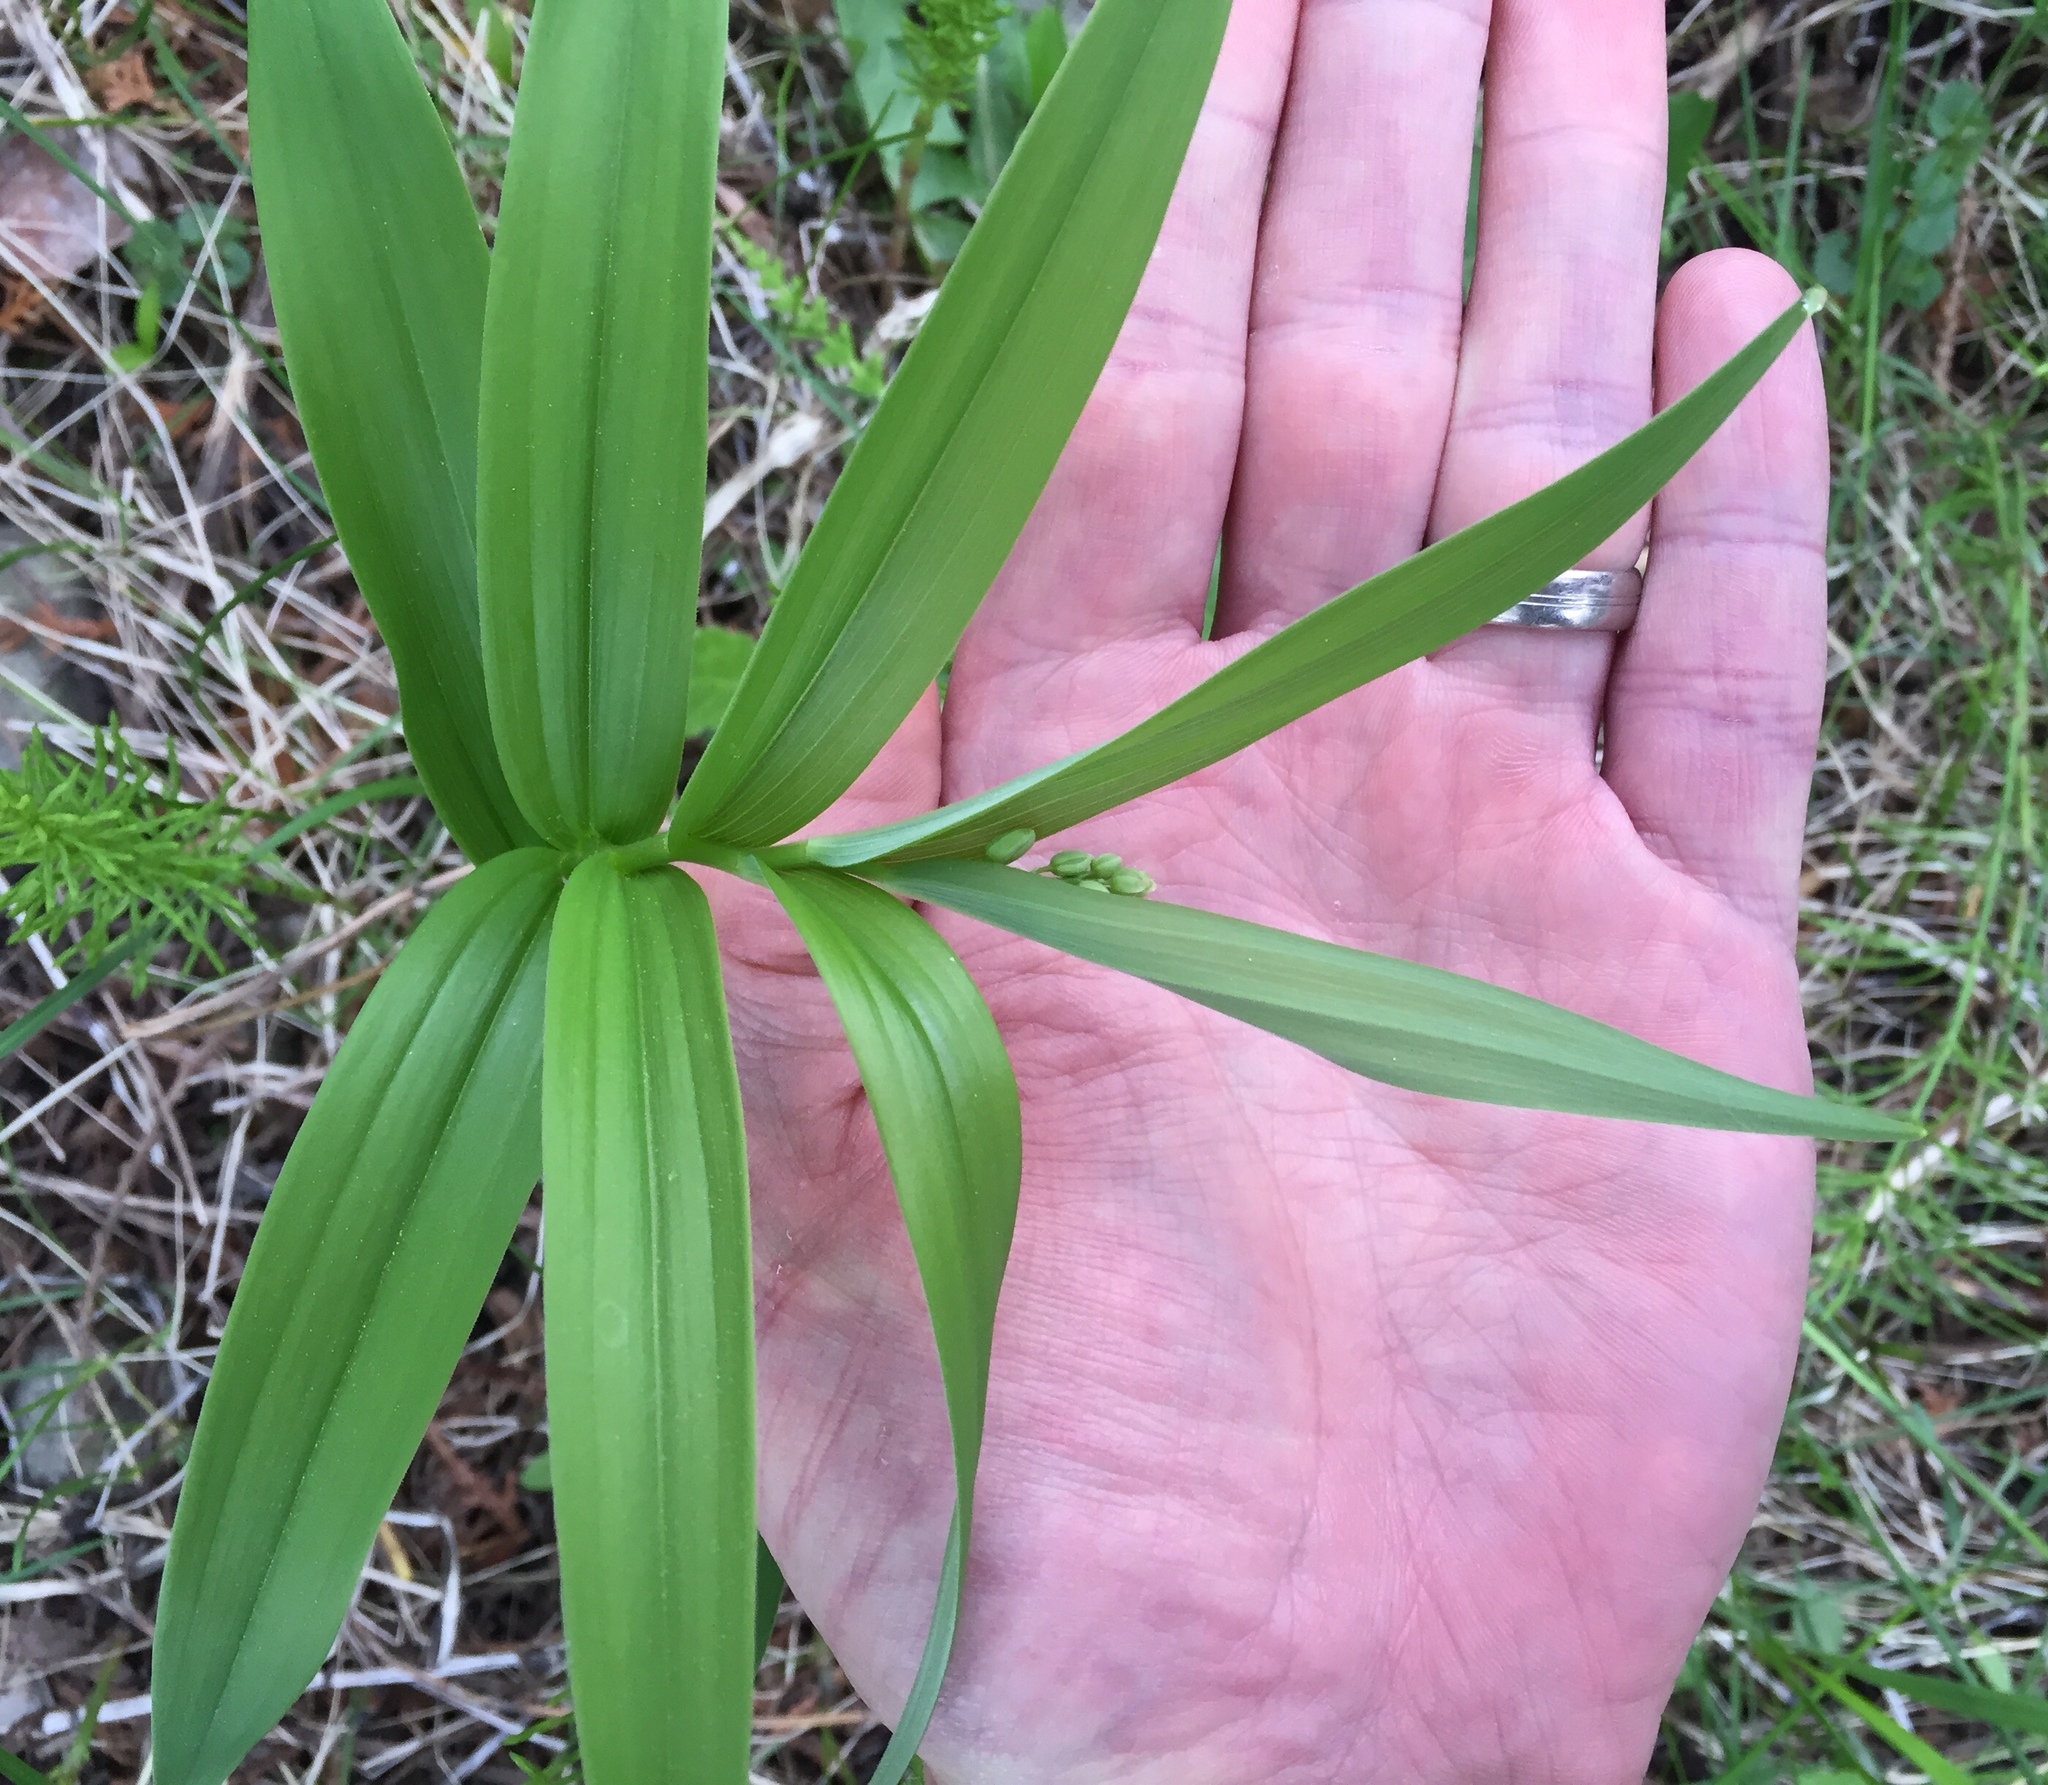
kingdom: Plantae
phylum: Tracheophyta
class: Liliopsida
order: Asparagales
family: Asparagaceae
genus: Maianthemum
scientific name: Maianthemum stellatum
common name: Little false solomon's seal
